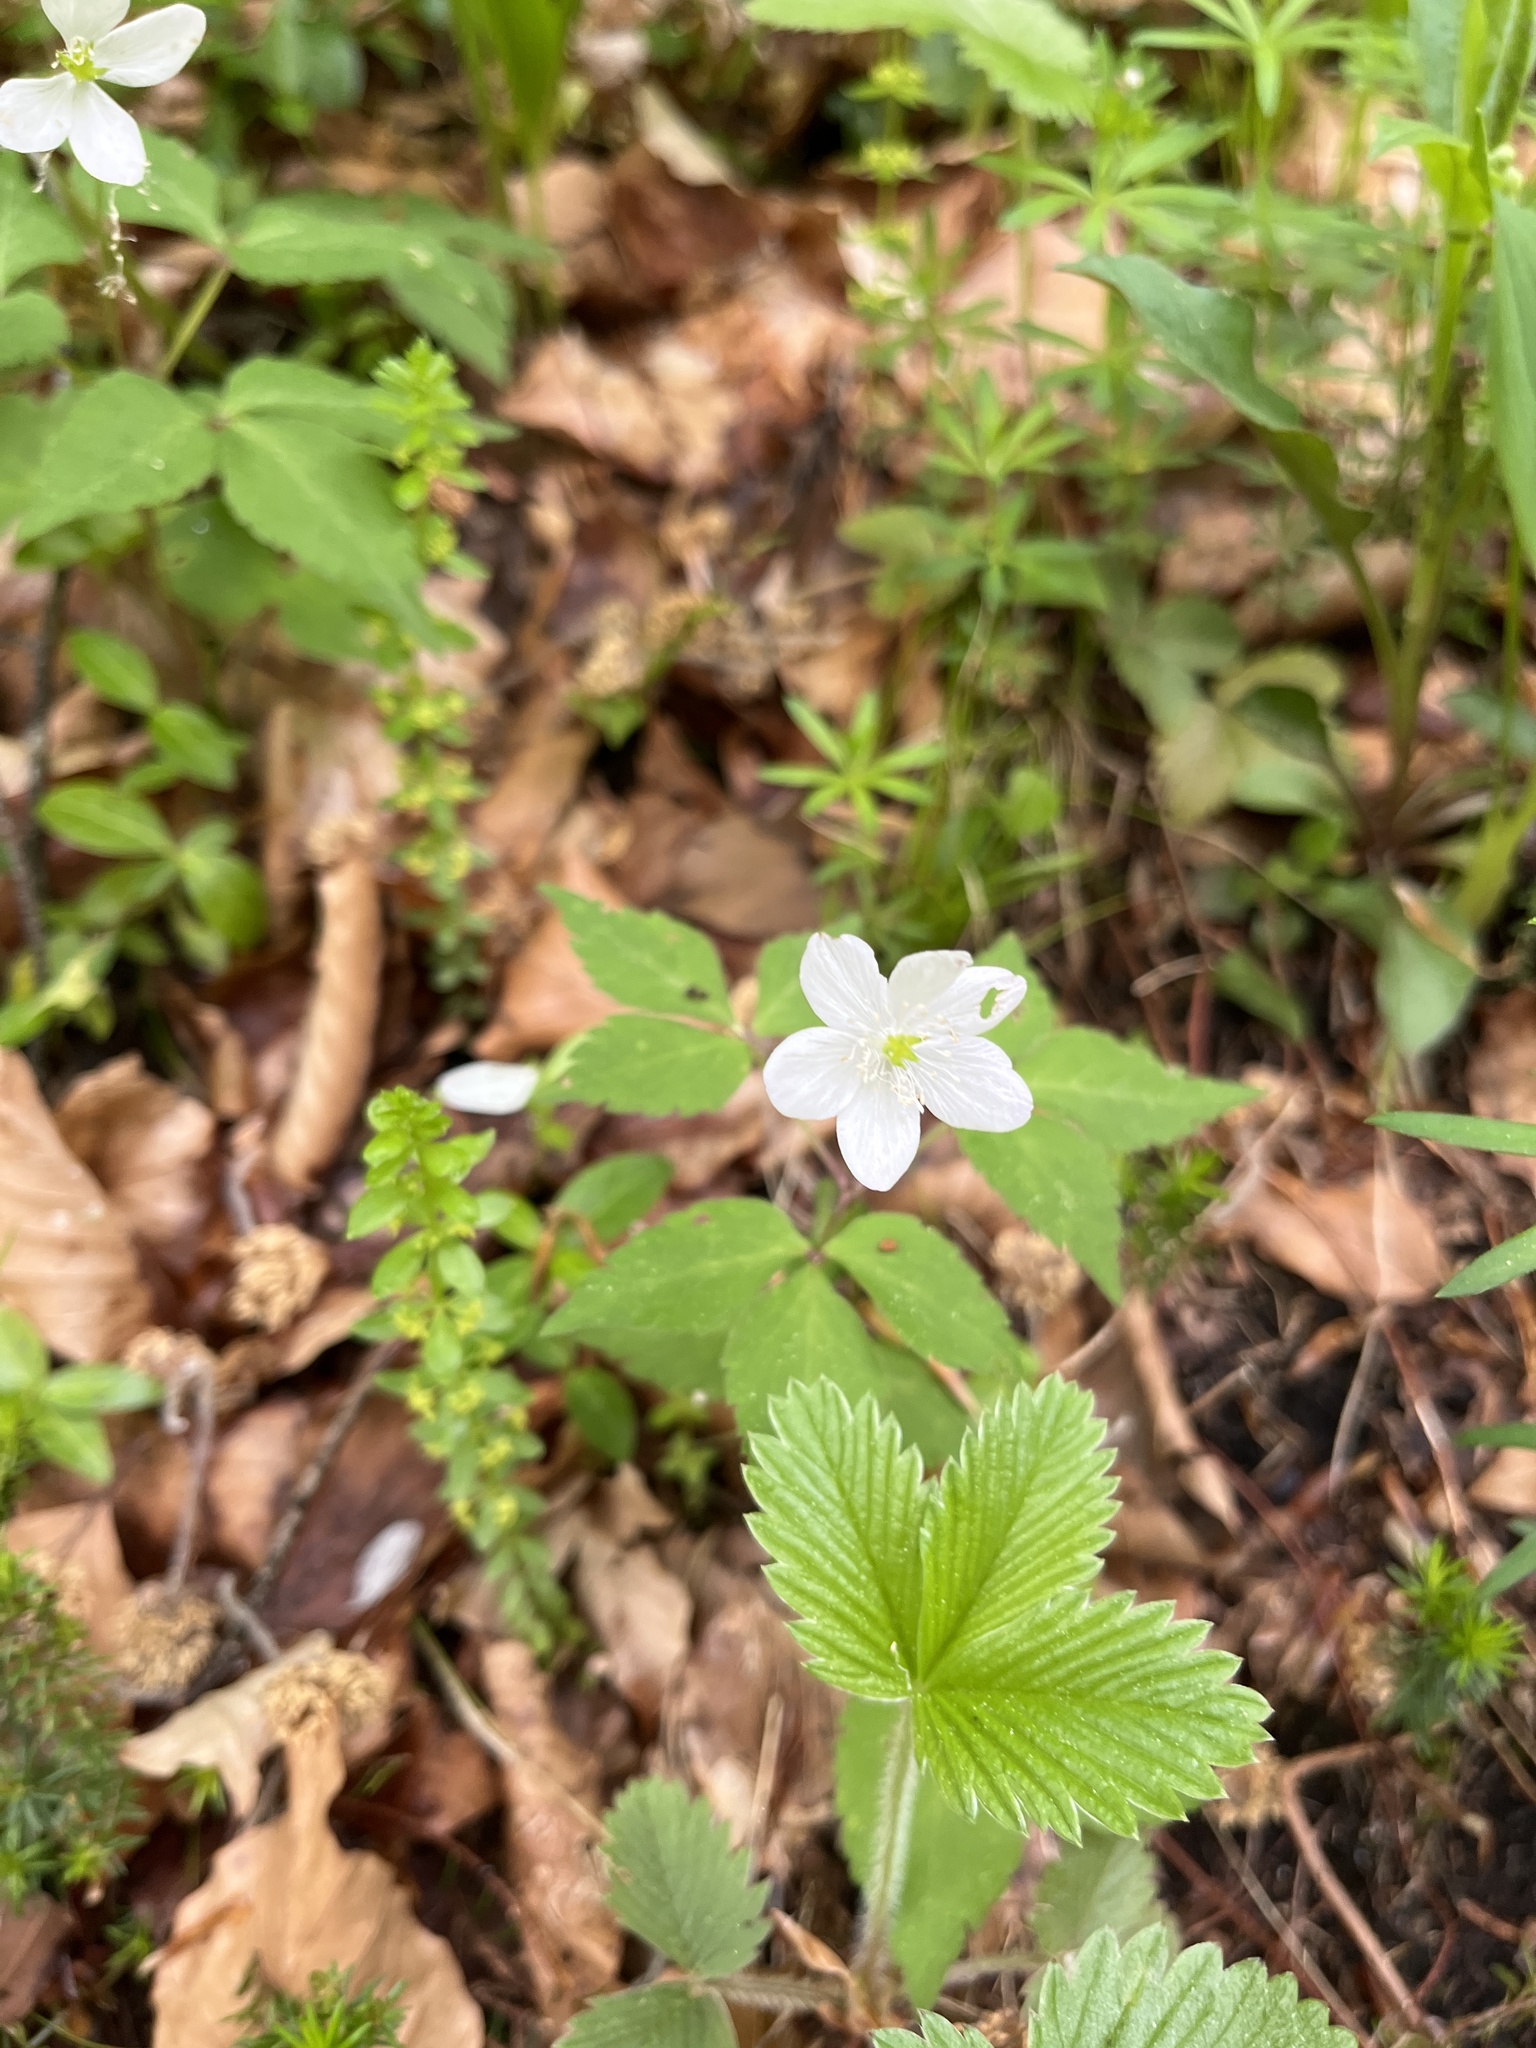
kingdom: Plantae
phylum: Tracheophyta
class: Magnoliopsida
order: Ranunculales
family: Ranunculaceae
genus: Anemone
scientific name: Anemone trifolia
